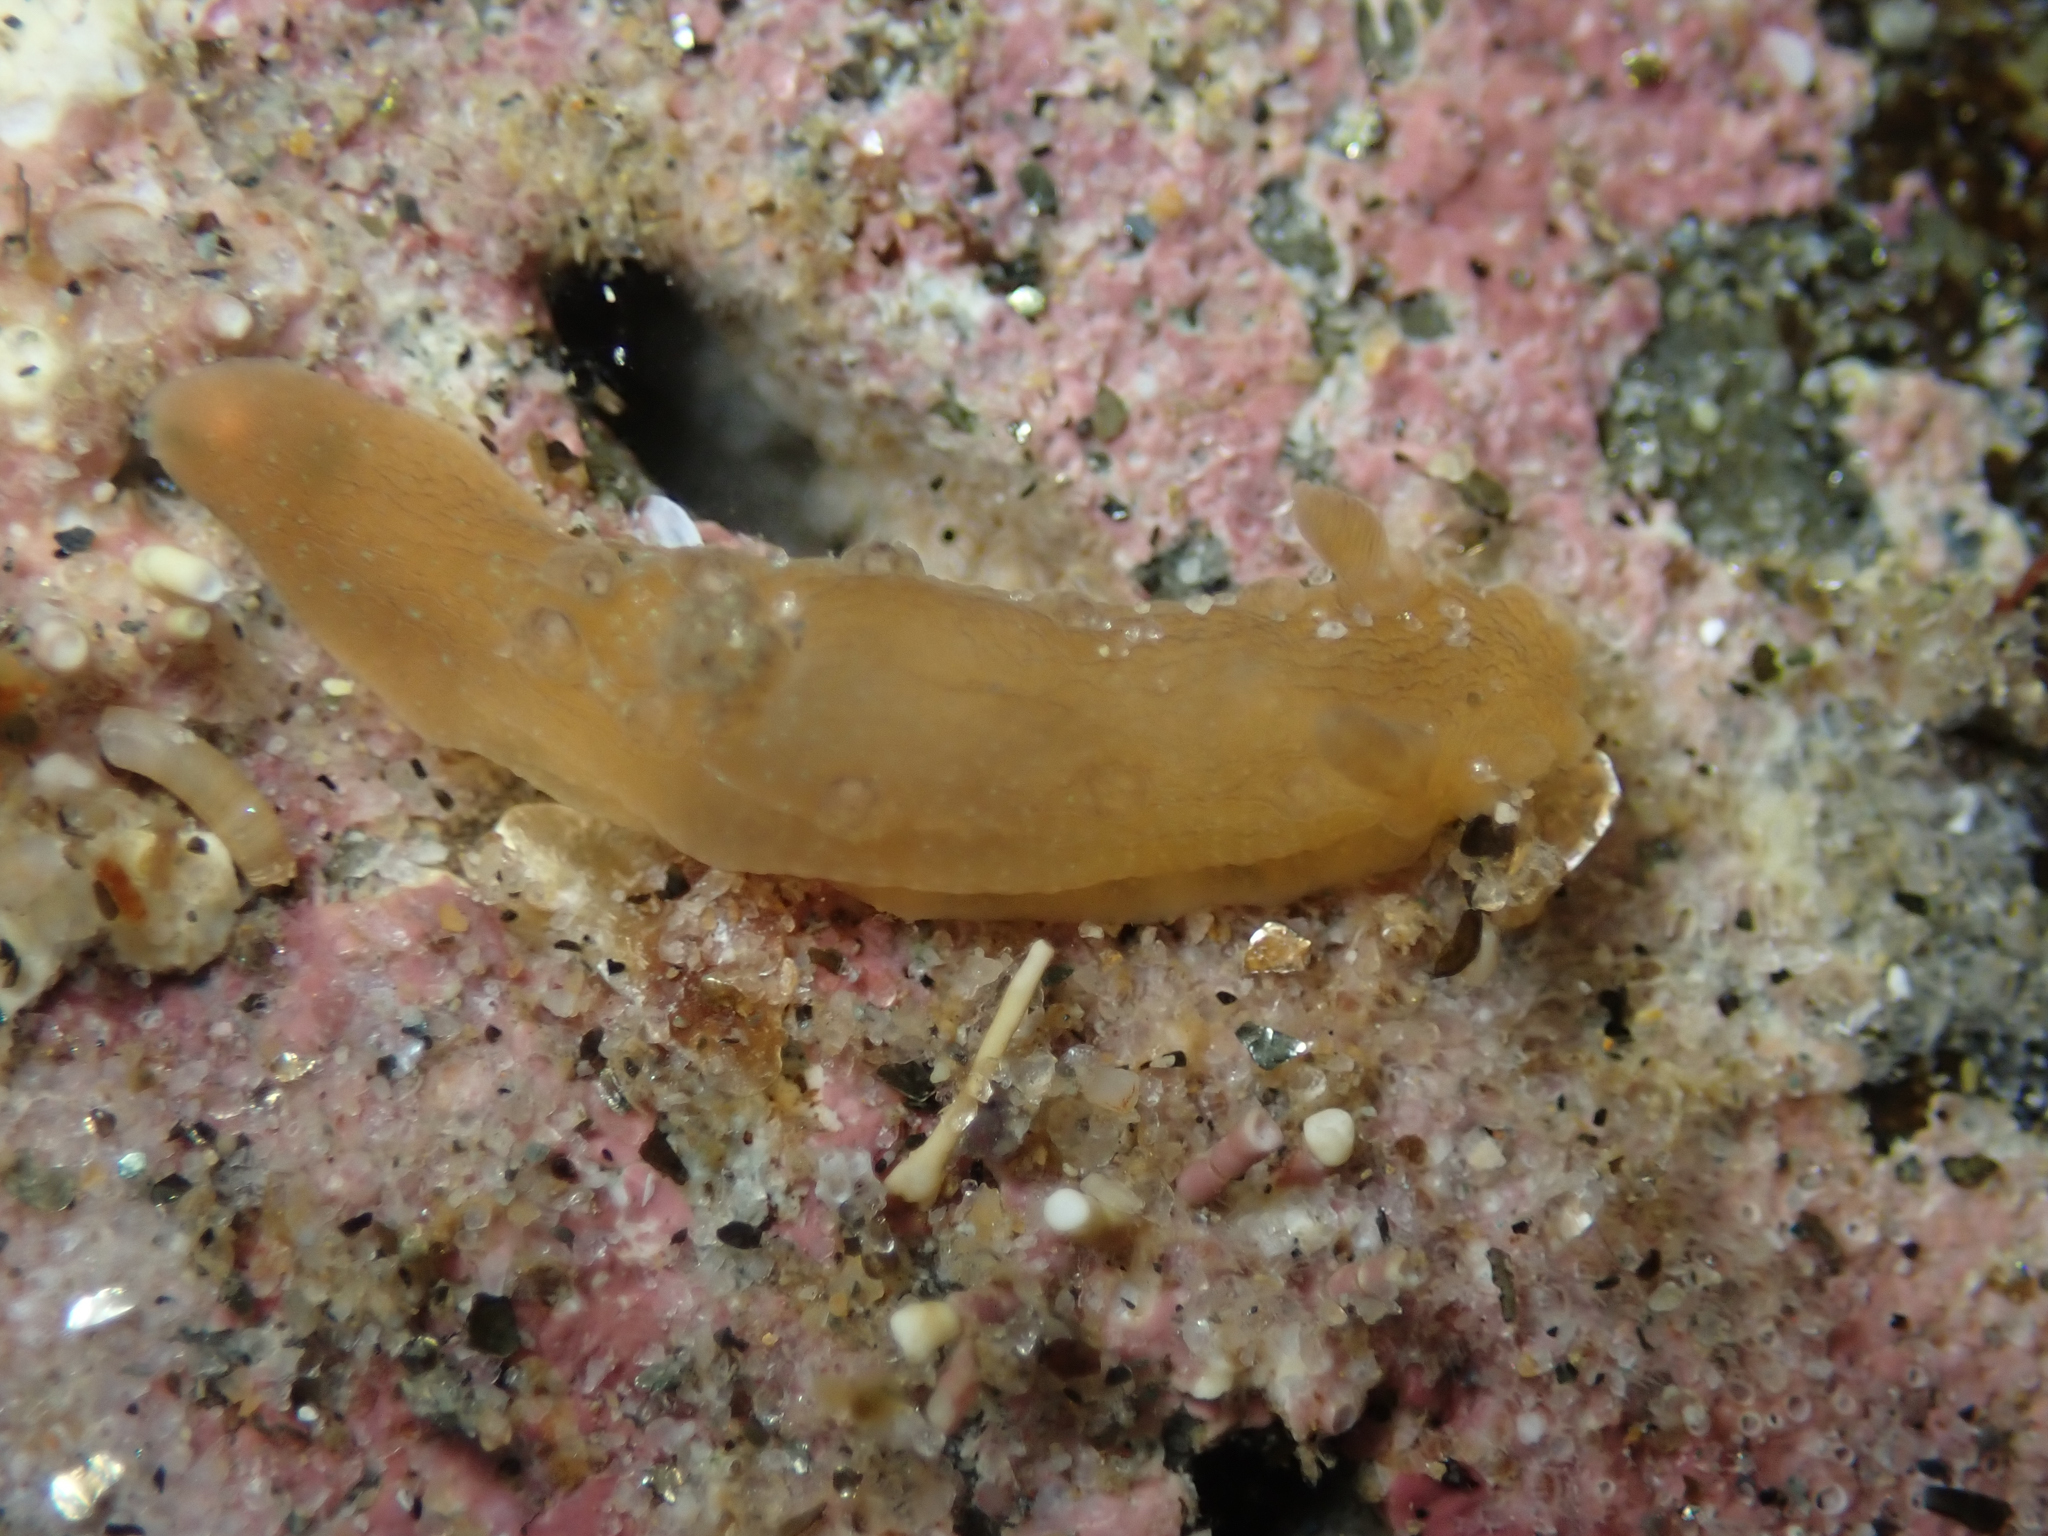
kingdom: Animalia
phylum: Mollusca
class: Gastropoda
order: Nudibranchia
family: Polyceridae
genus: Triopha
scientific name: Triopha maculata
